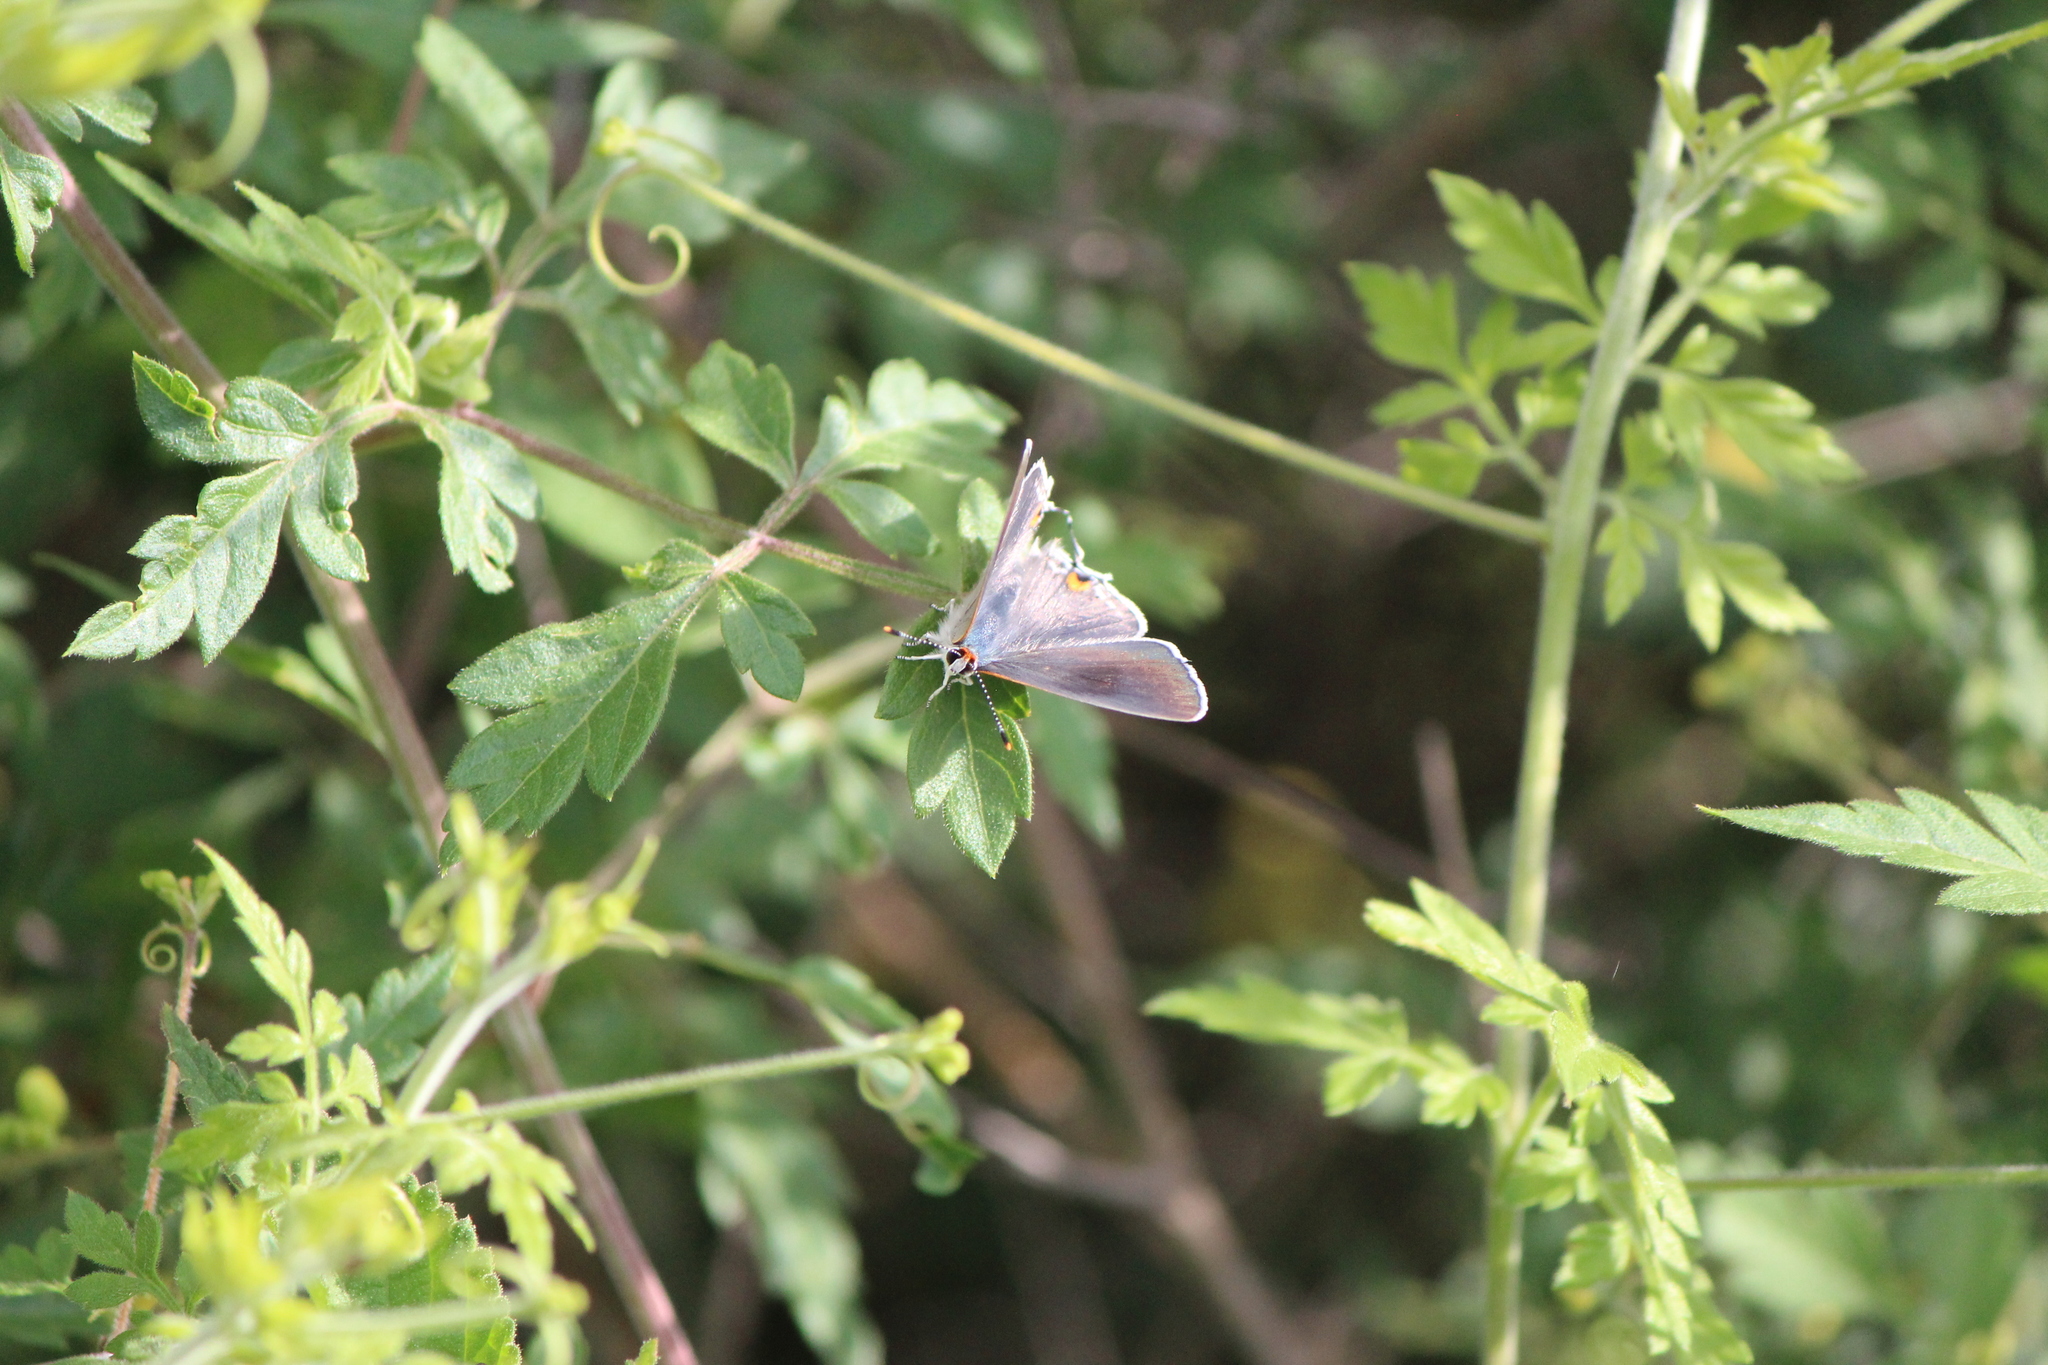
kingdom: Animalia
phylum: Arthropoda
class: Insecta
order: Lepidoptera
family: Lycaenidae
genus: Strymon
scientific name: Strymon melinus
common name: Gray hairstreak
